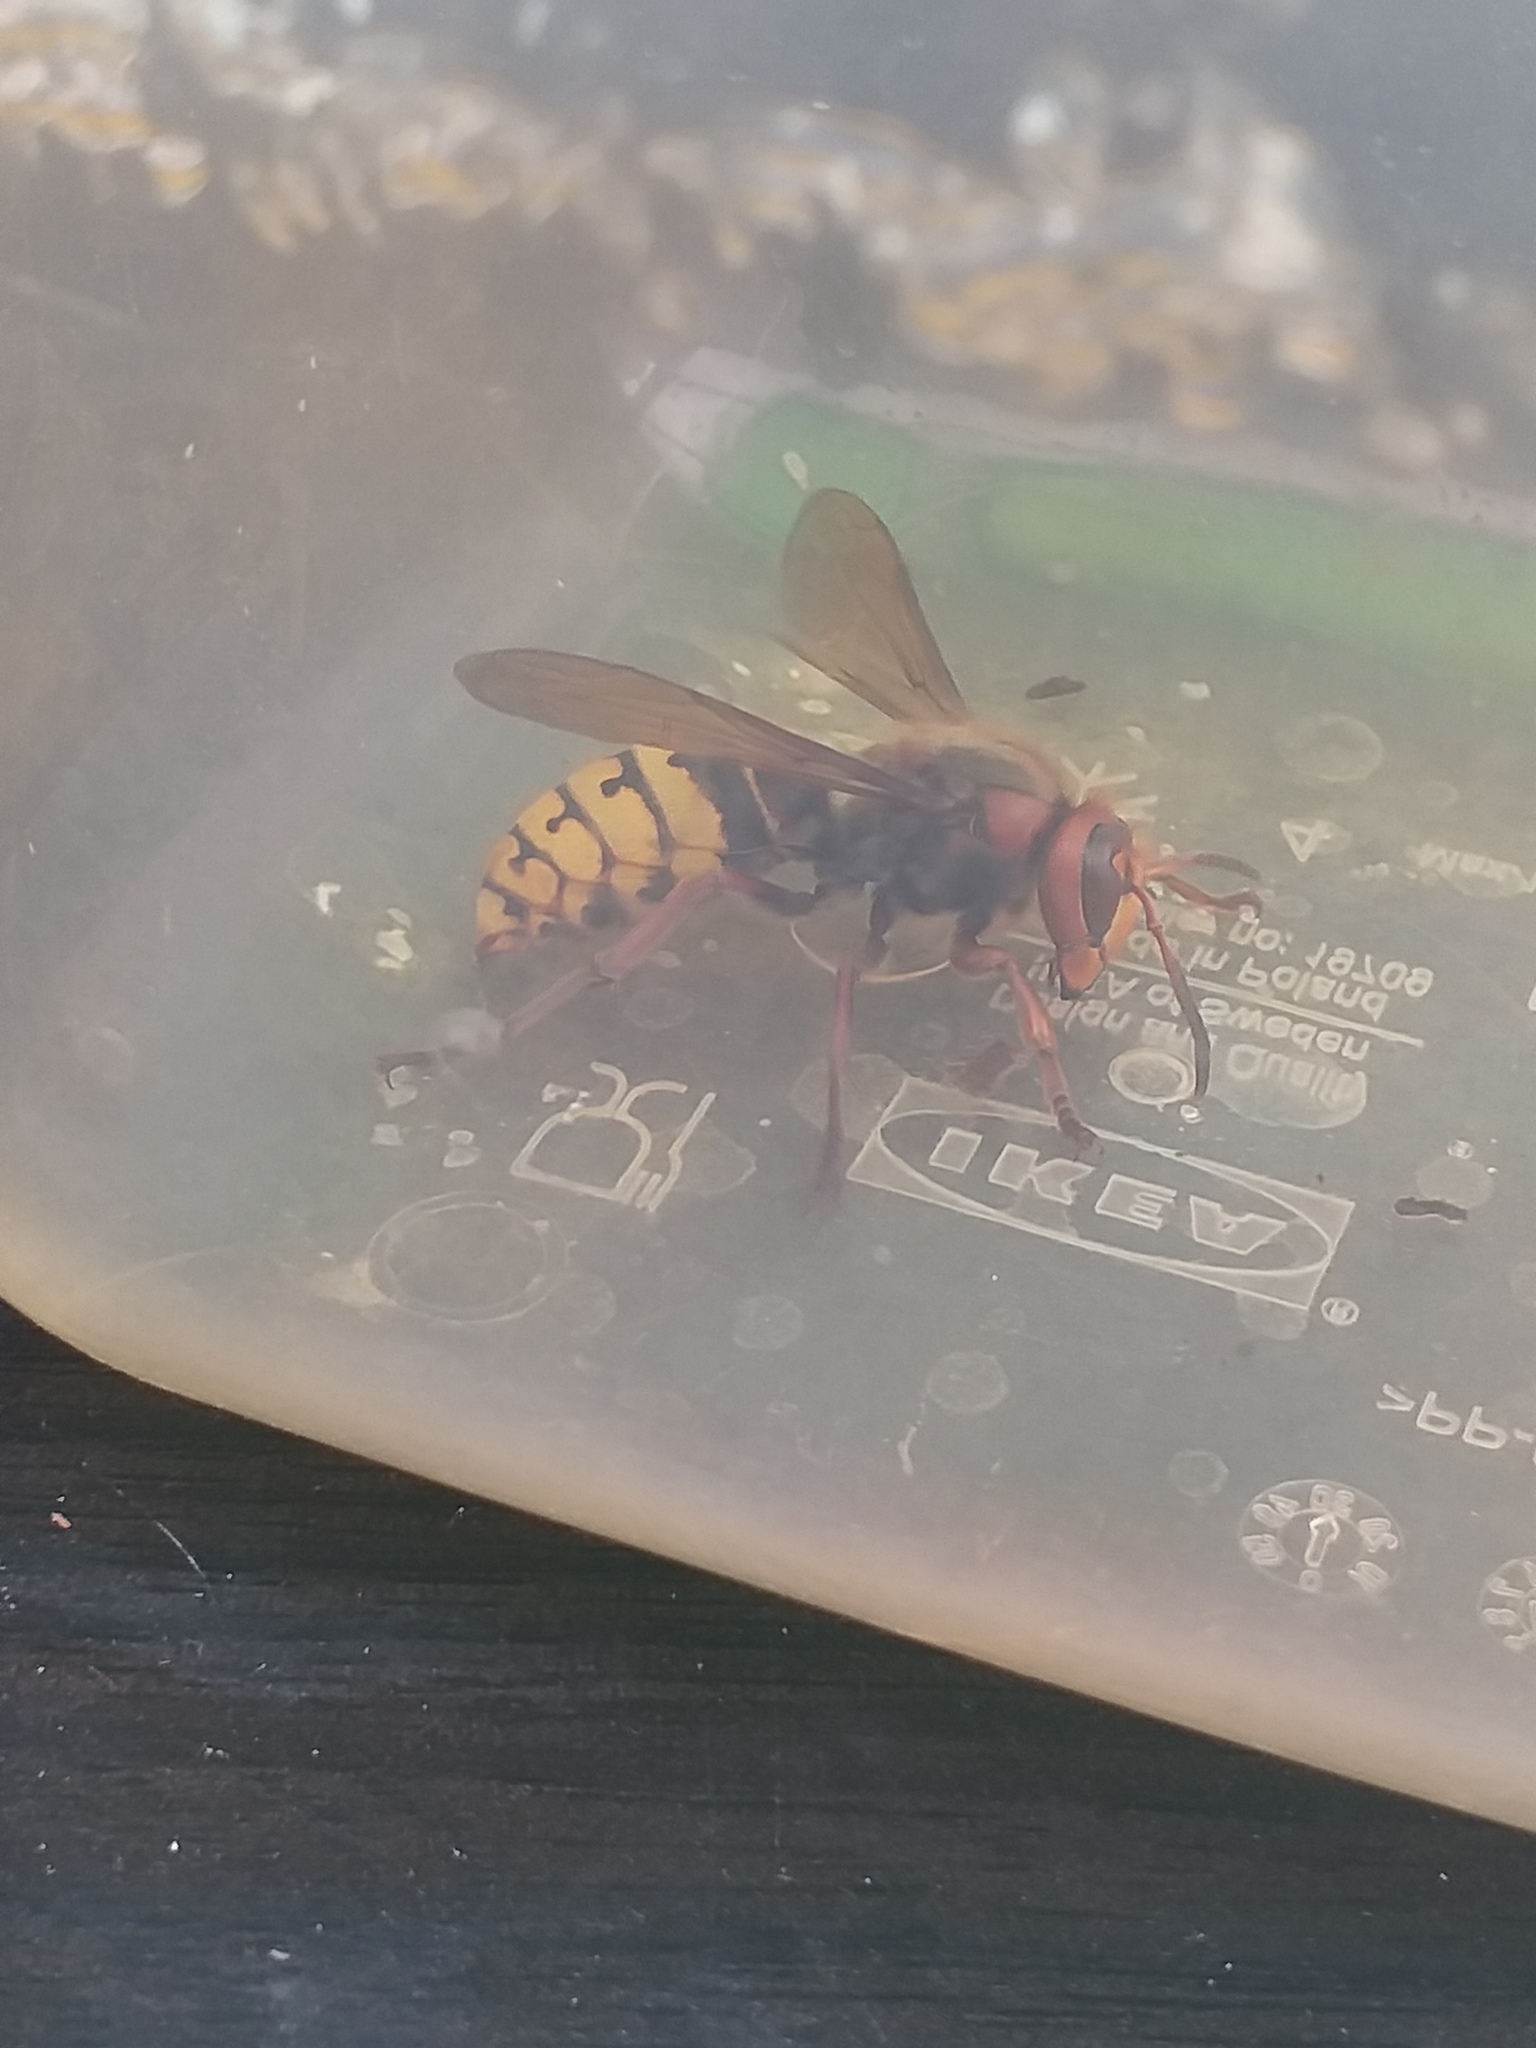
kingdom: Animalia
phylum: Arthropoda
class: Insecta
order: Hymenoptera
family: Vespidae
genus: Vespa
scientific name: Vespa crabro
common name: Hornet
